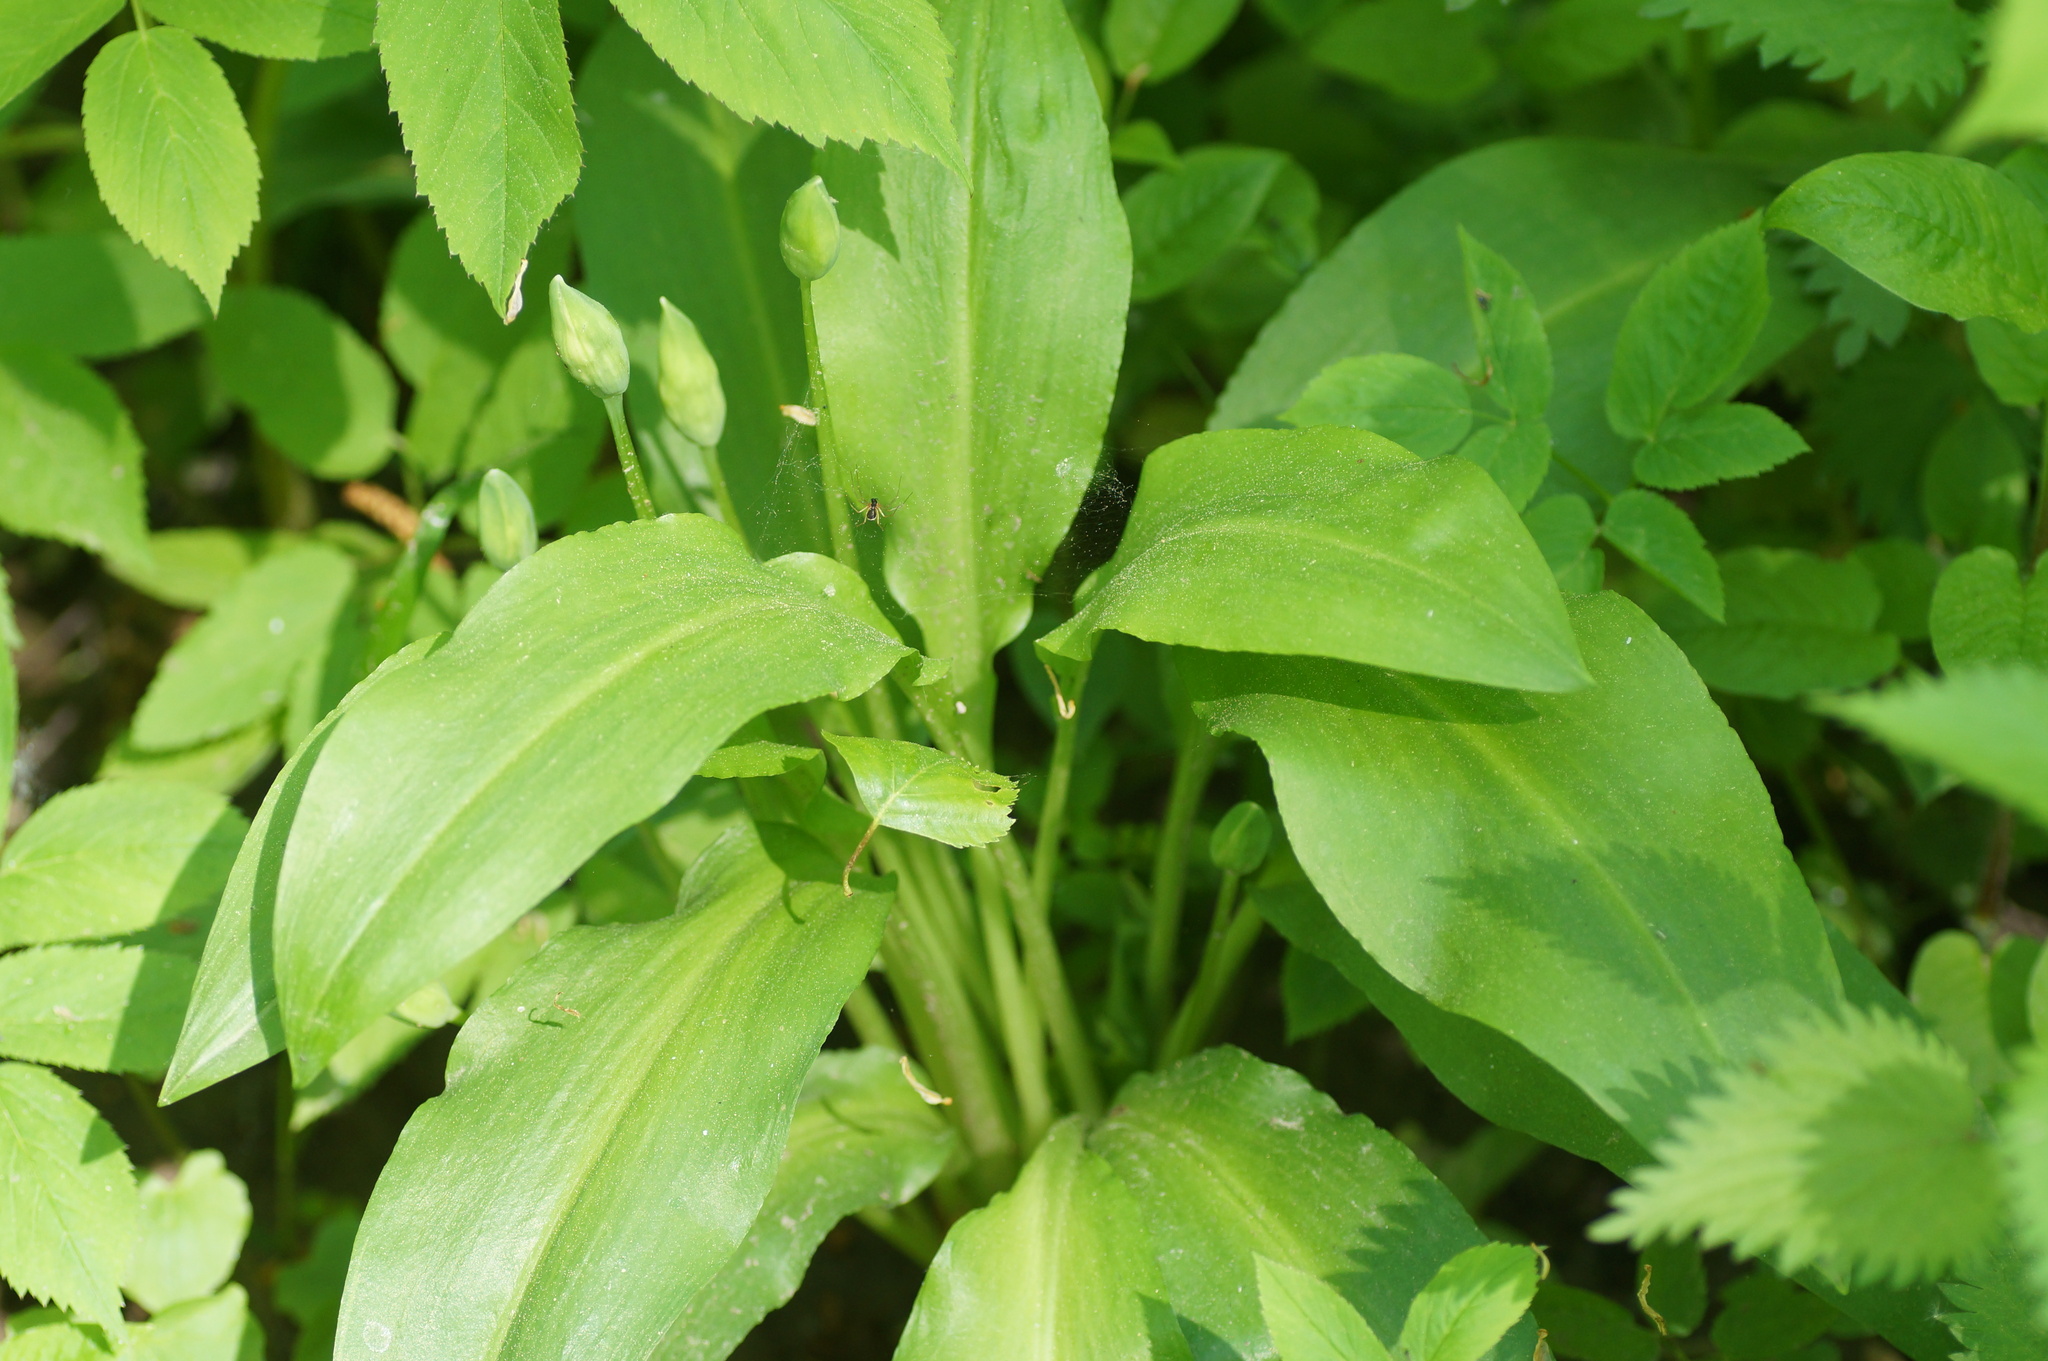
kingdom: Plantae
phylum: Tracheophyta
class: Liliopsida
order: Asparagales
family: Amaryllidaceae
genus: Allium
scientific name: Allium ursinum
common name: Ramsons
